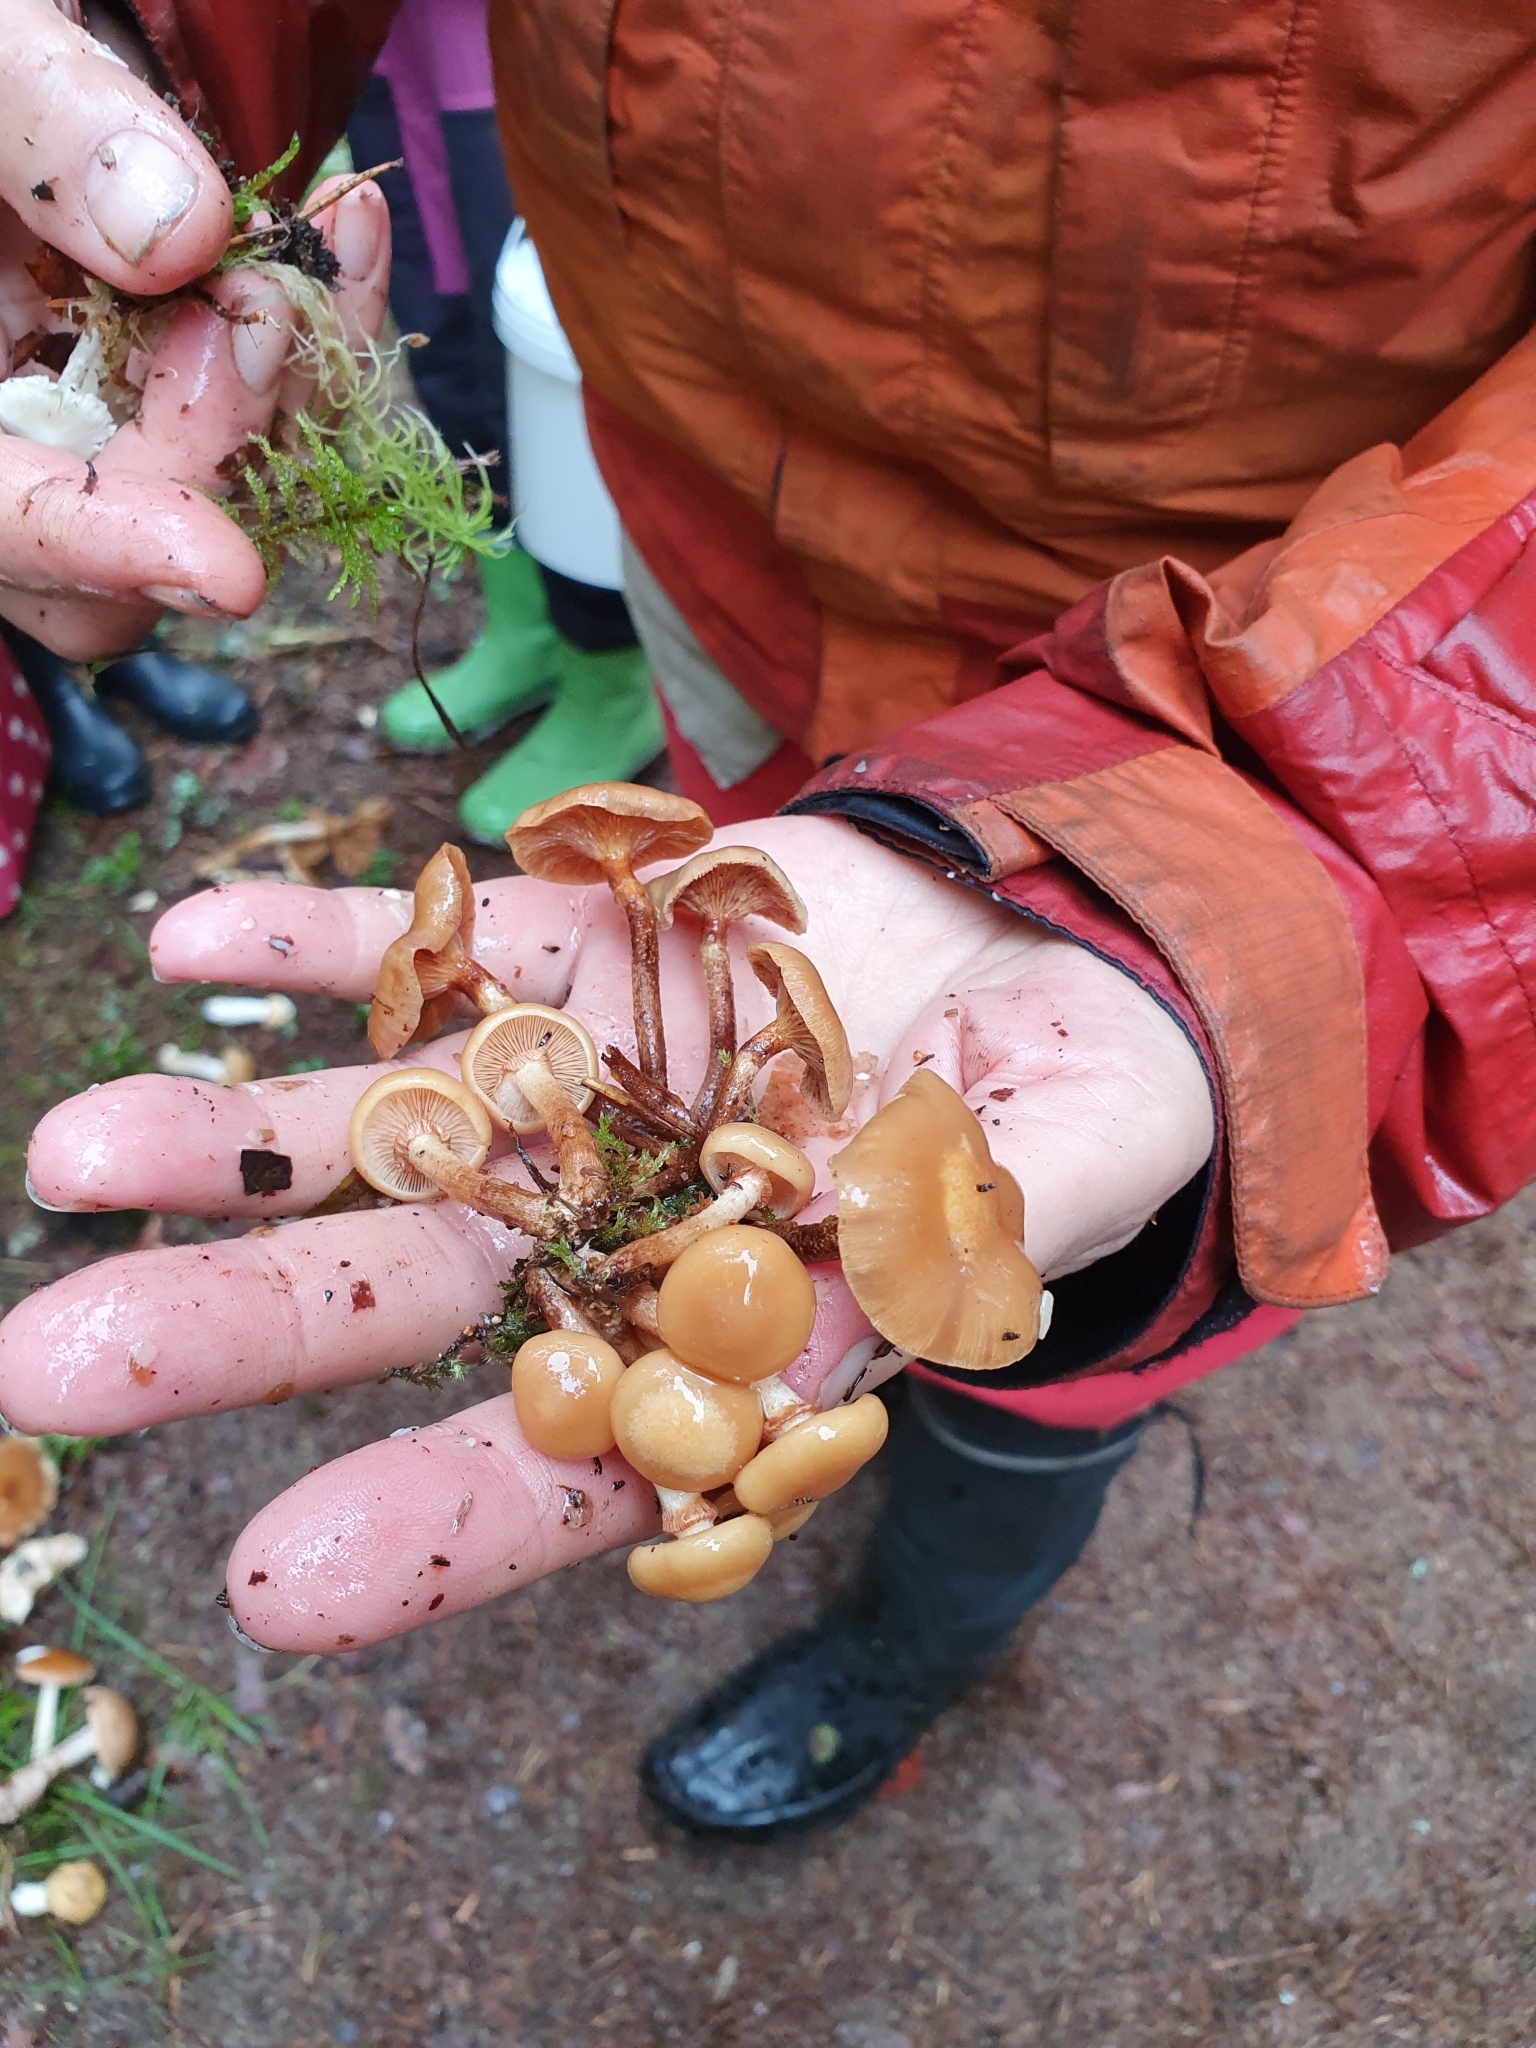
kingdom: Fungi
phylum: Basidiomycota
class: Agaricomycetes
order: Agaricales
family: Strophariaceae
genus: Kuehneromyces
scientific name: Kuehneromyces mutabilis
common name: Sheathed woodtuft
